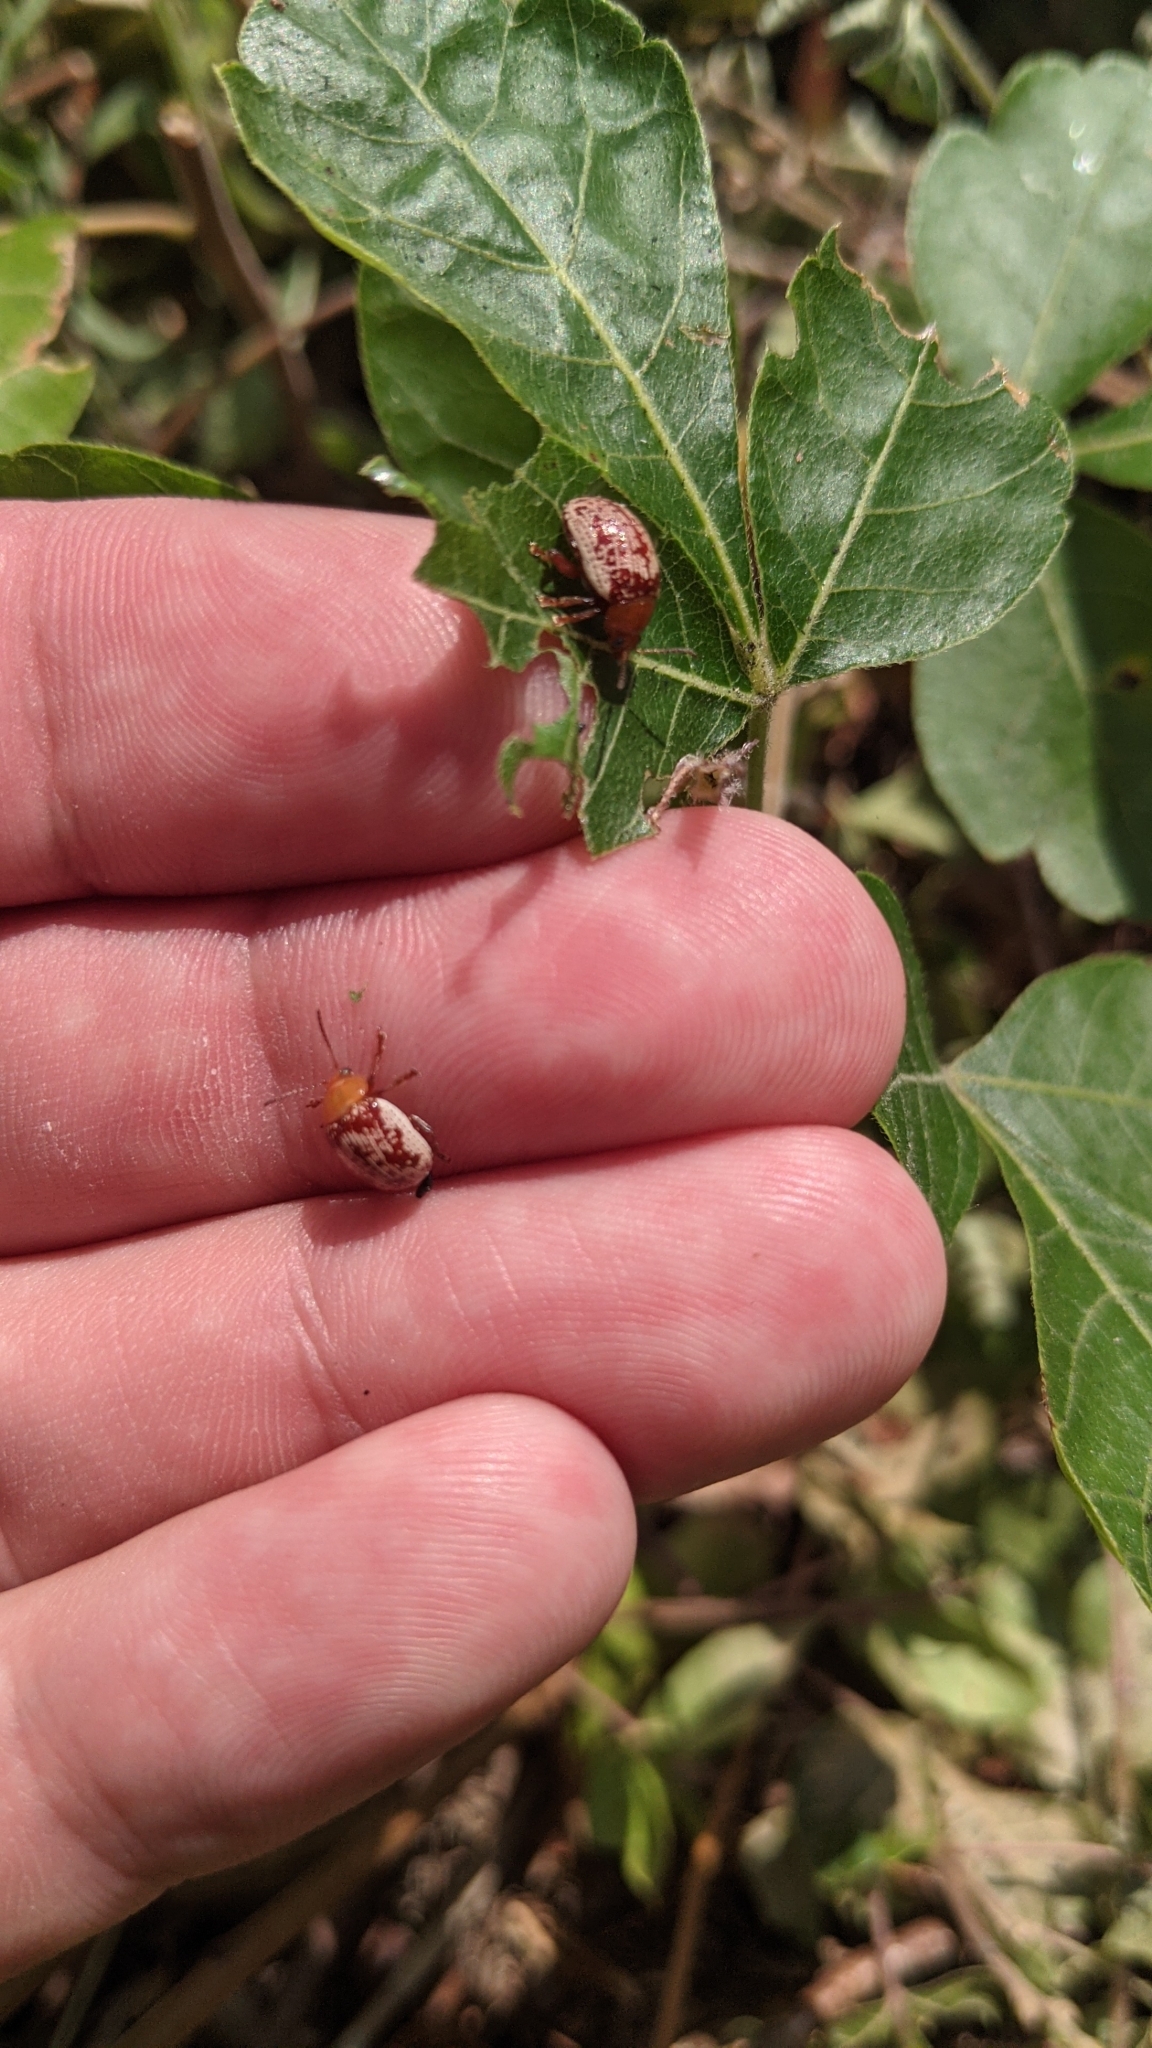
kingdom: Animalia
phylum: Arthropoda
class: Insecta
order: Coleoptera
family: Chrysomelidae
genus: Blepharida
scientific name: Blepharida rhois
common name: Sumac flea beetle
